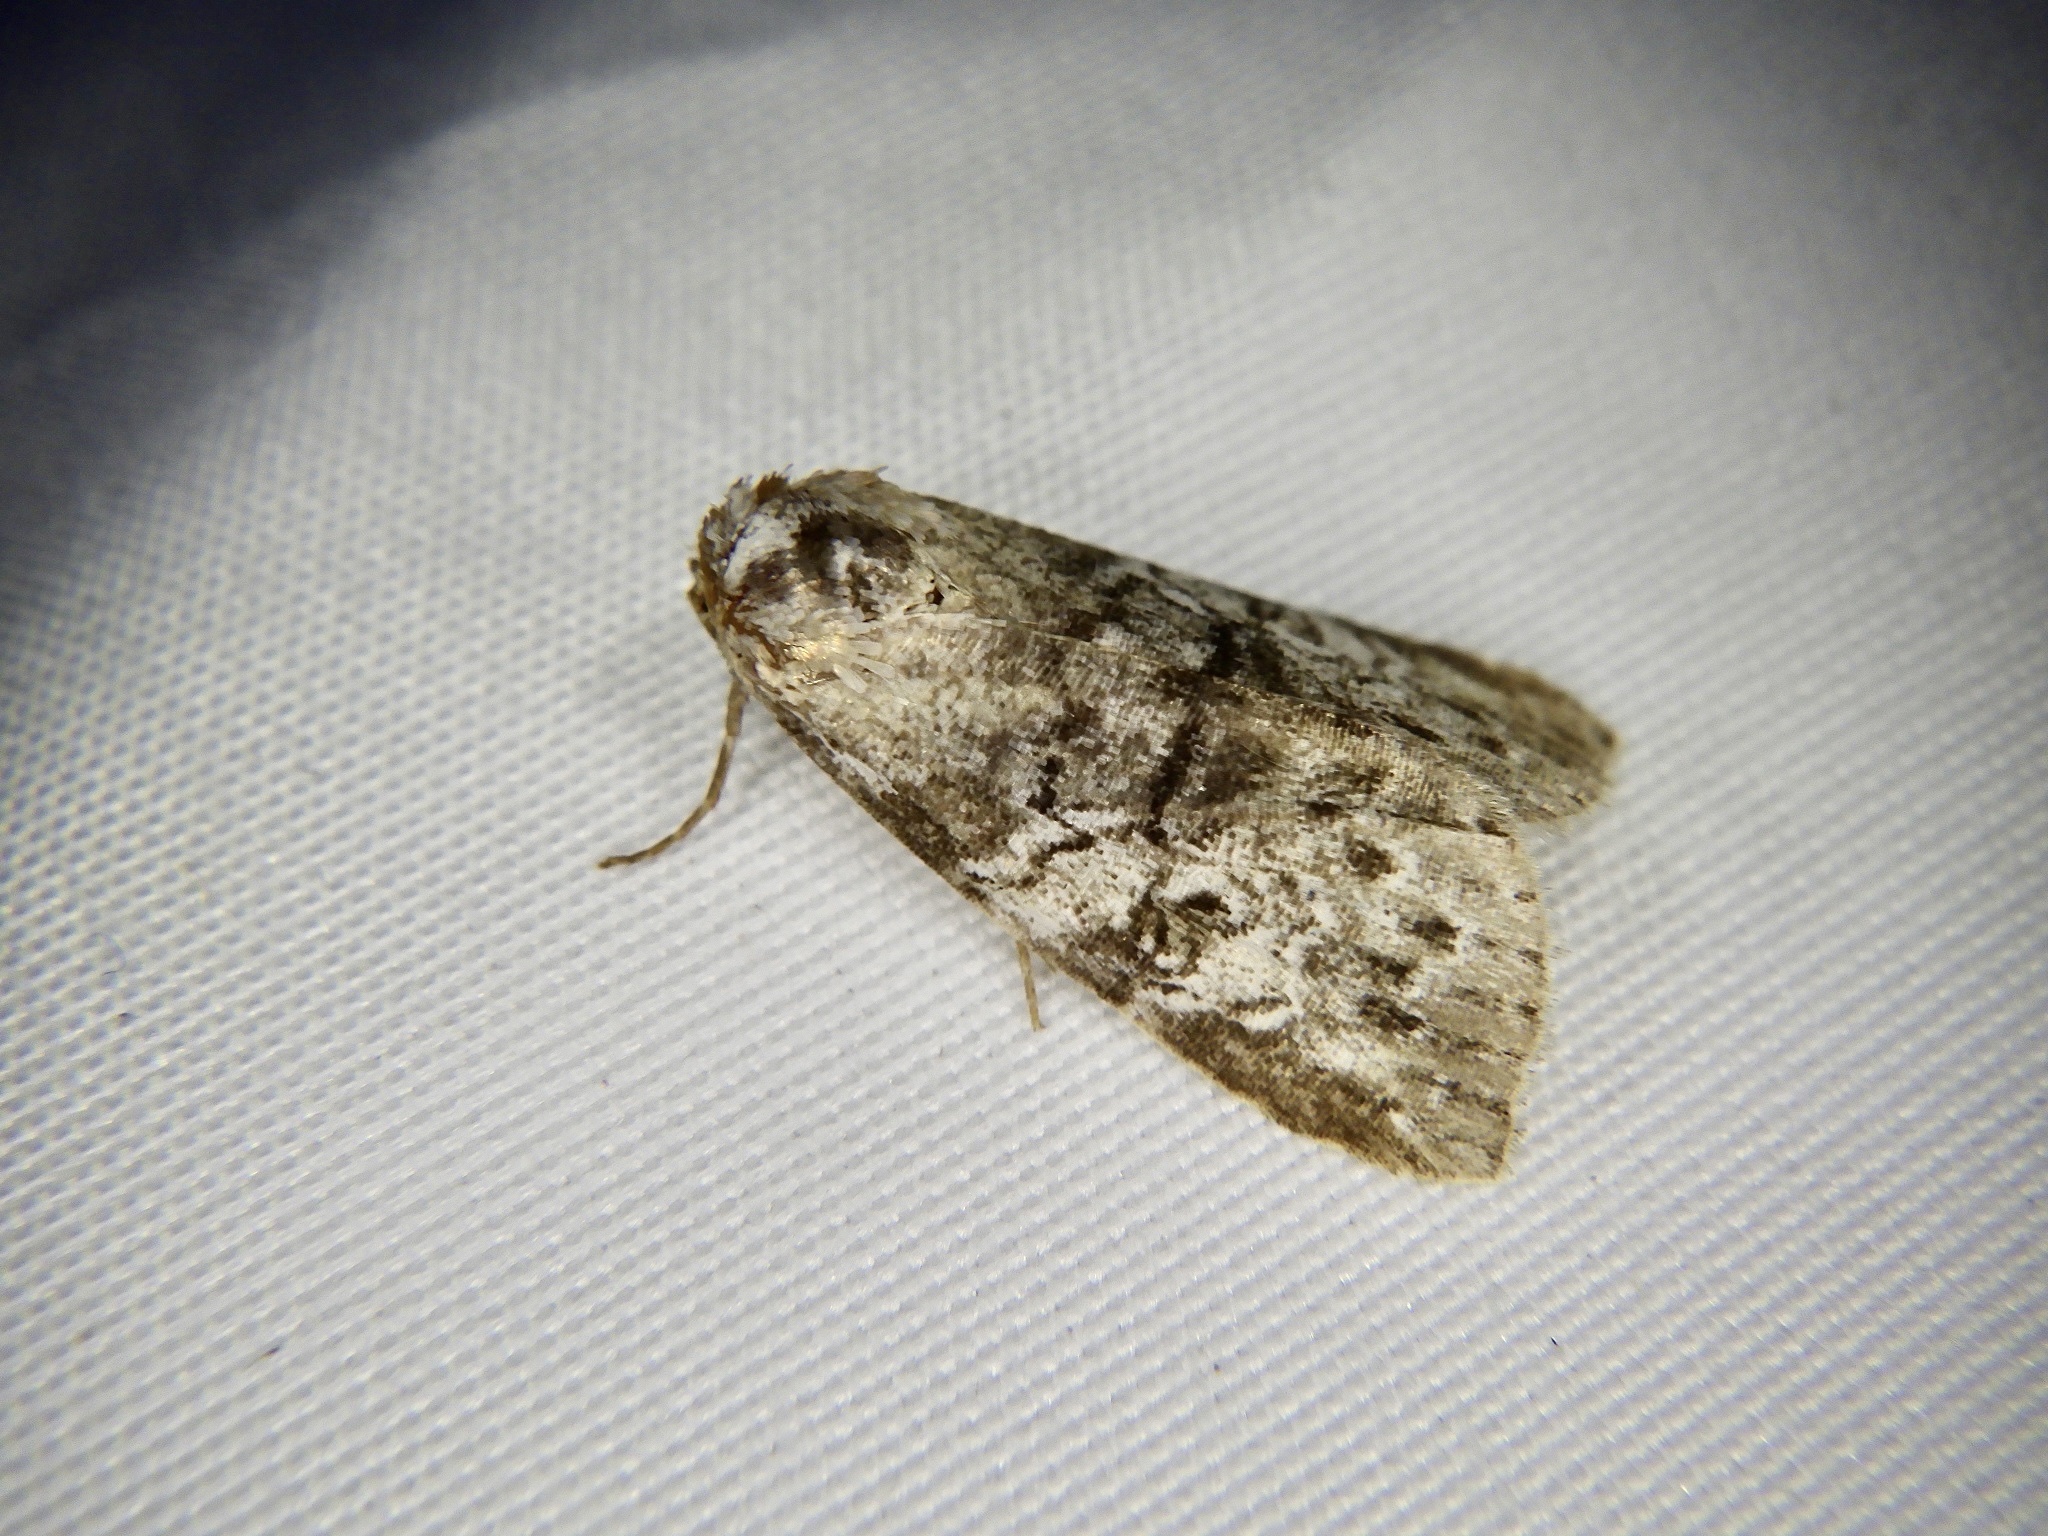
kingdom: Animalia
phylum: Arthropoda
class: Insecta
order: Lepidoptera
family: Erebidae
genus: Chorsia
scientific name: Chorsia mollicula
